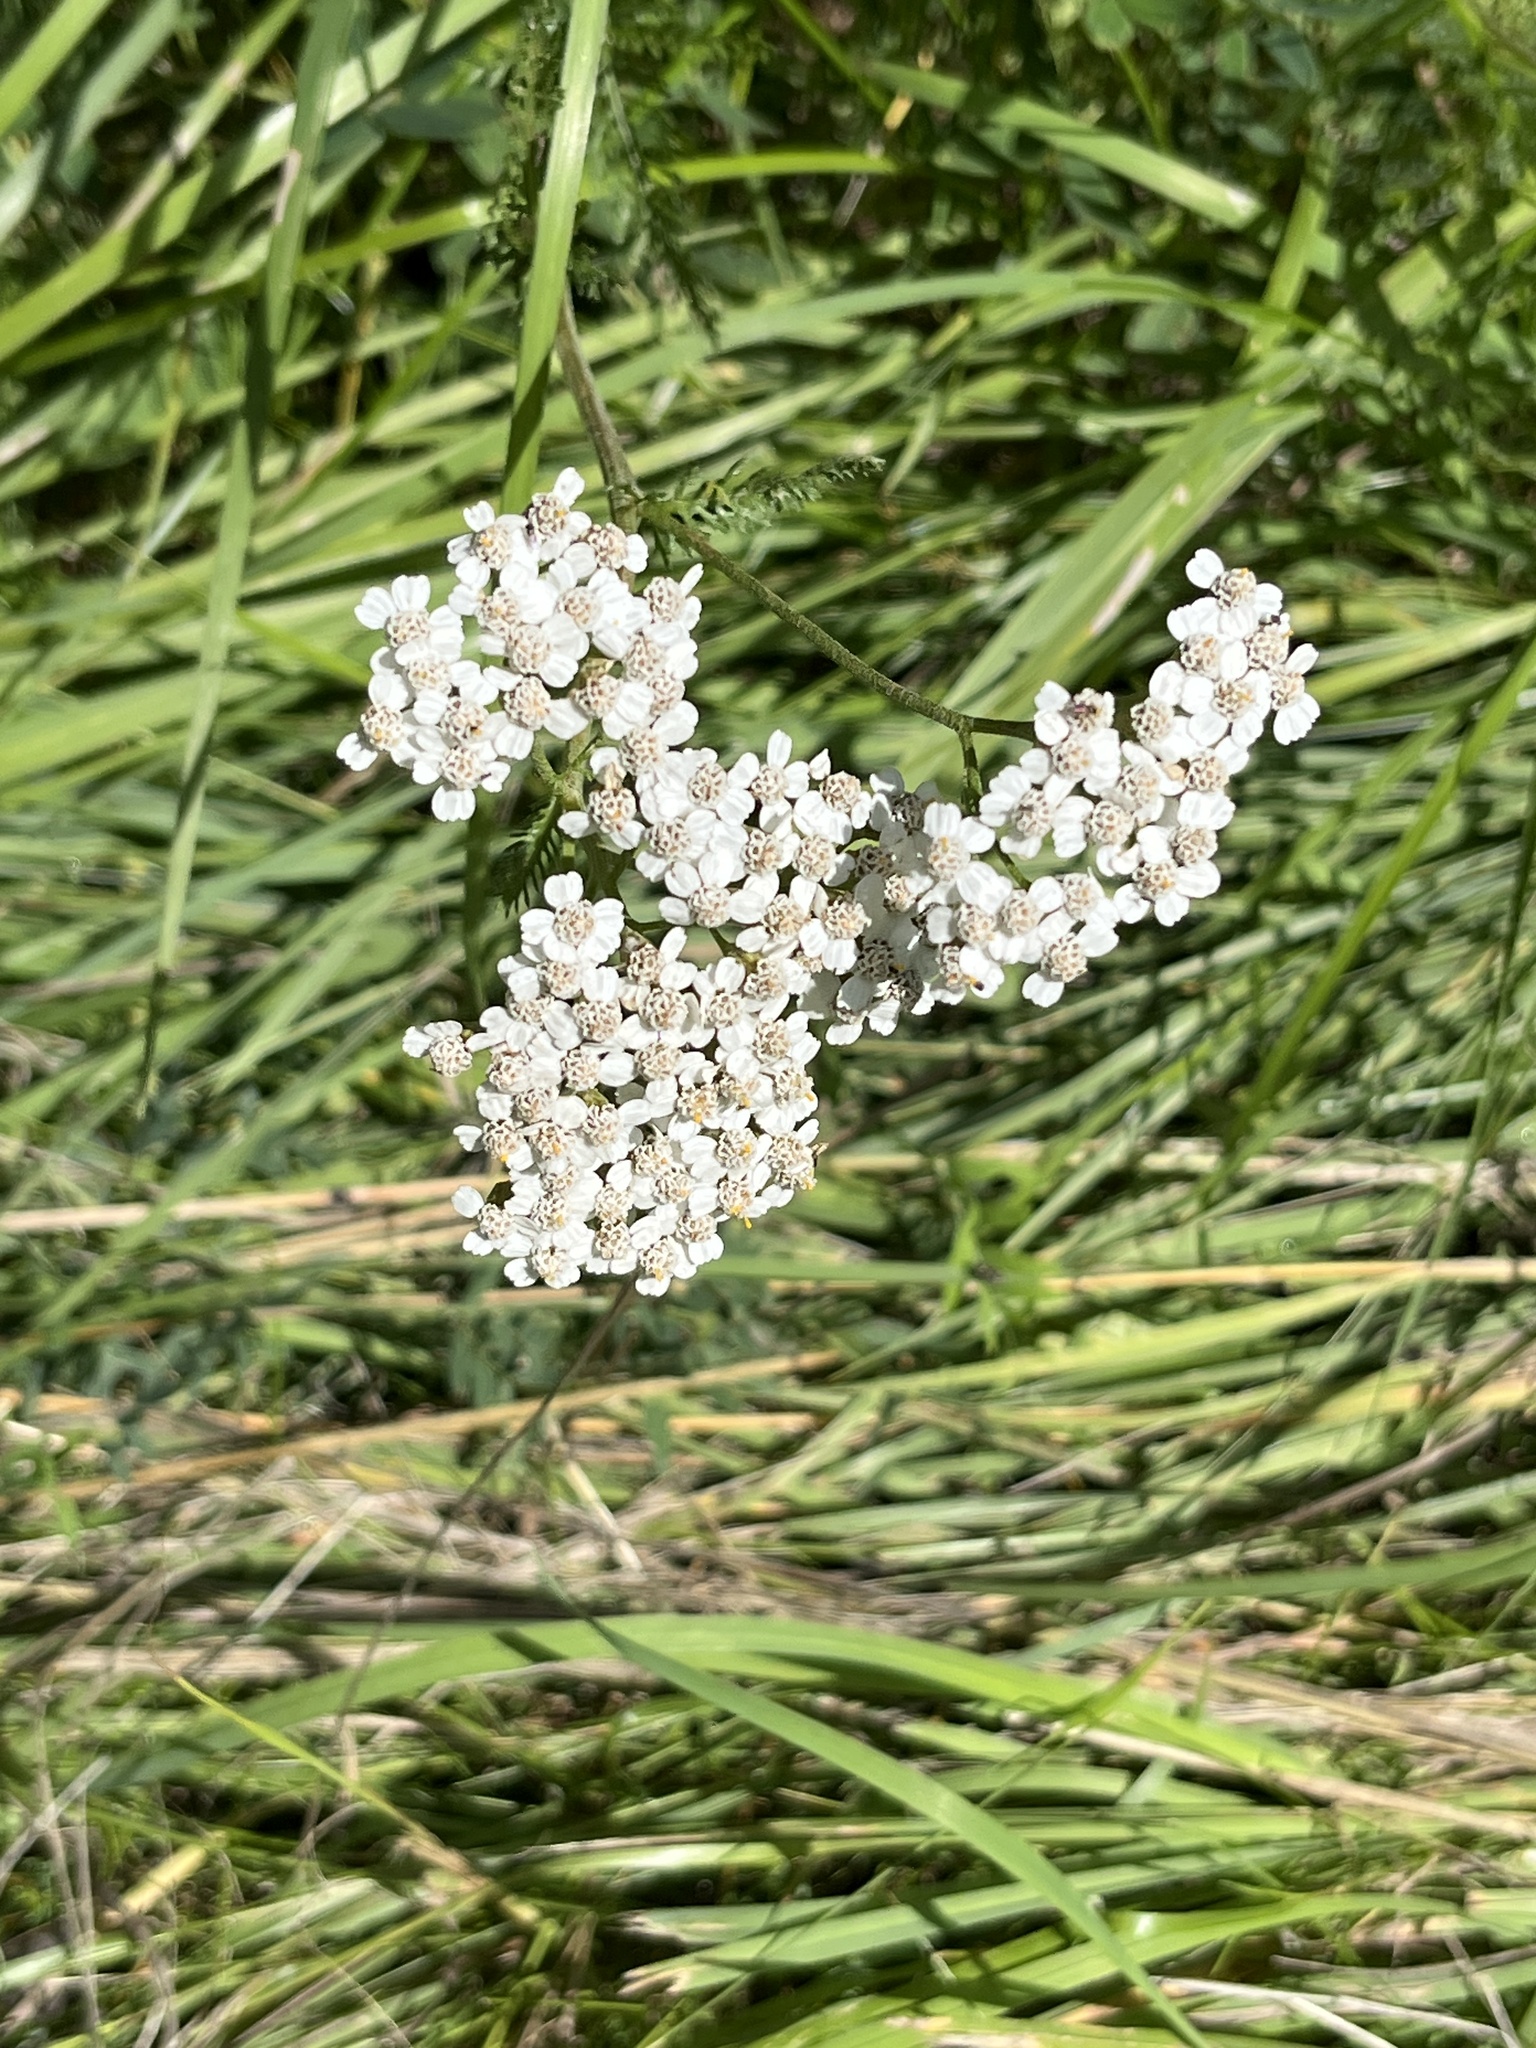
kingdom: Plantae
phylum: Tracheophyta
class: Magnoliopsida
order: Asterales
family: Asteraceae
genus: Achillea
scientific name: Achillea millefolium
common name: Yarrow
